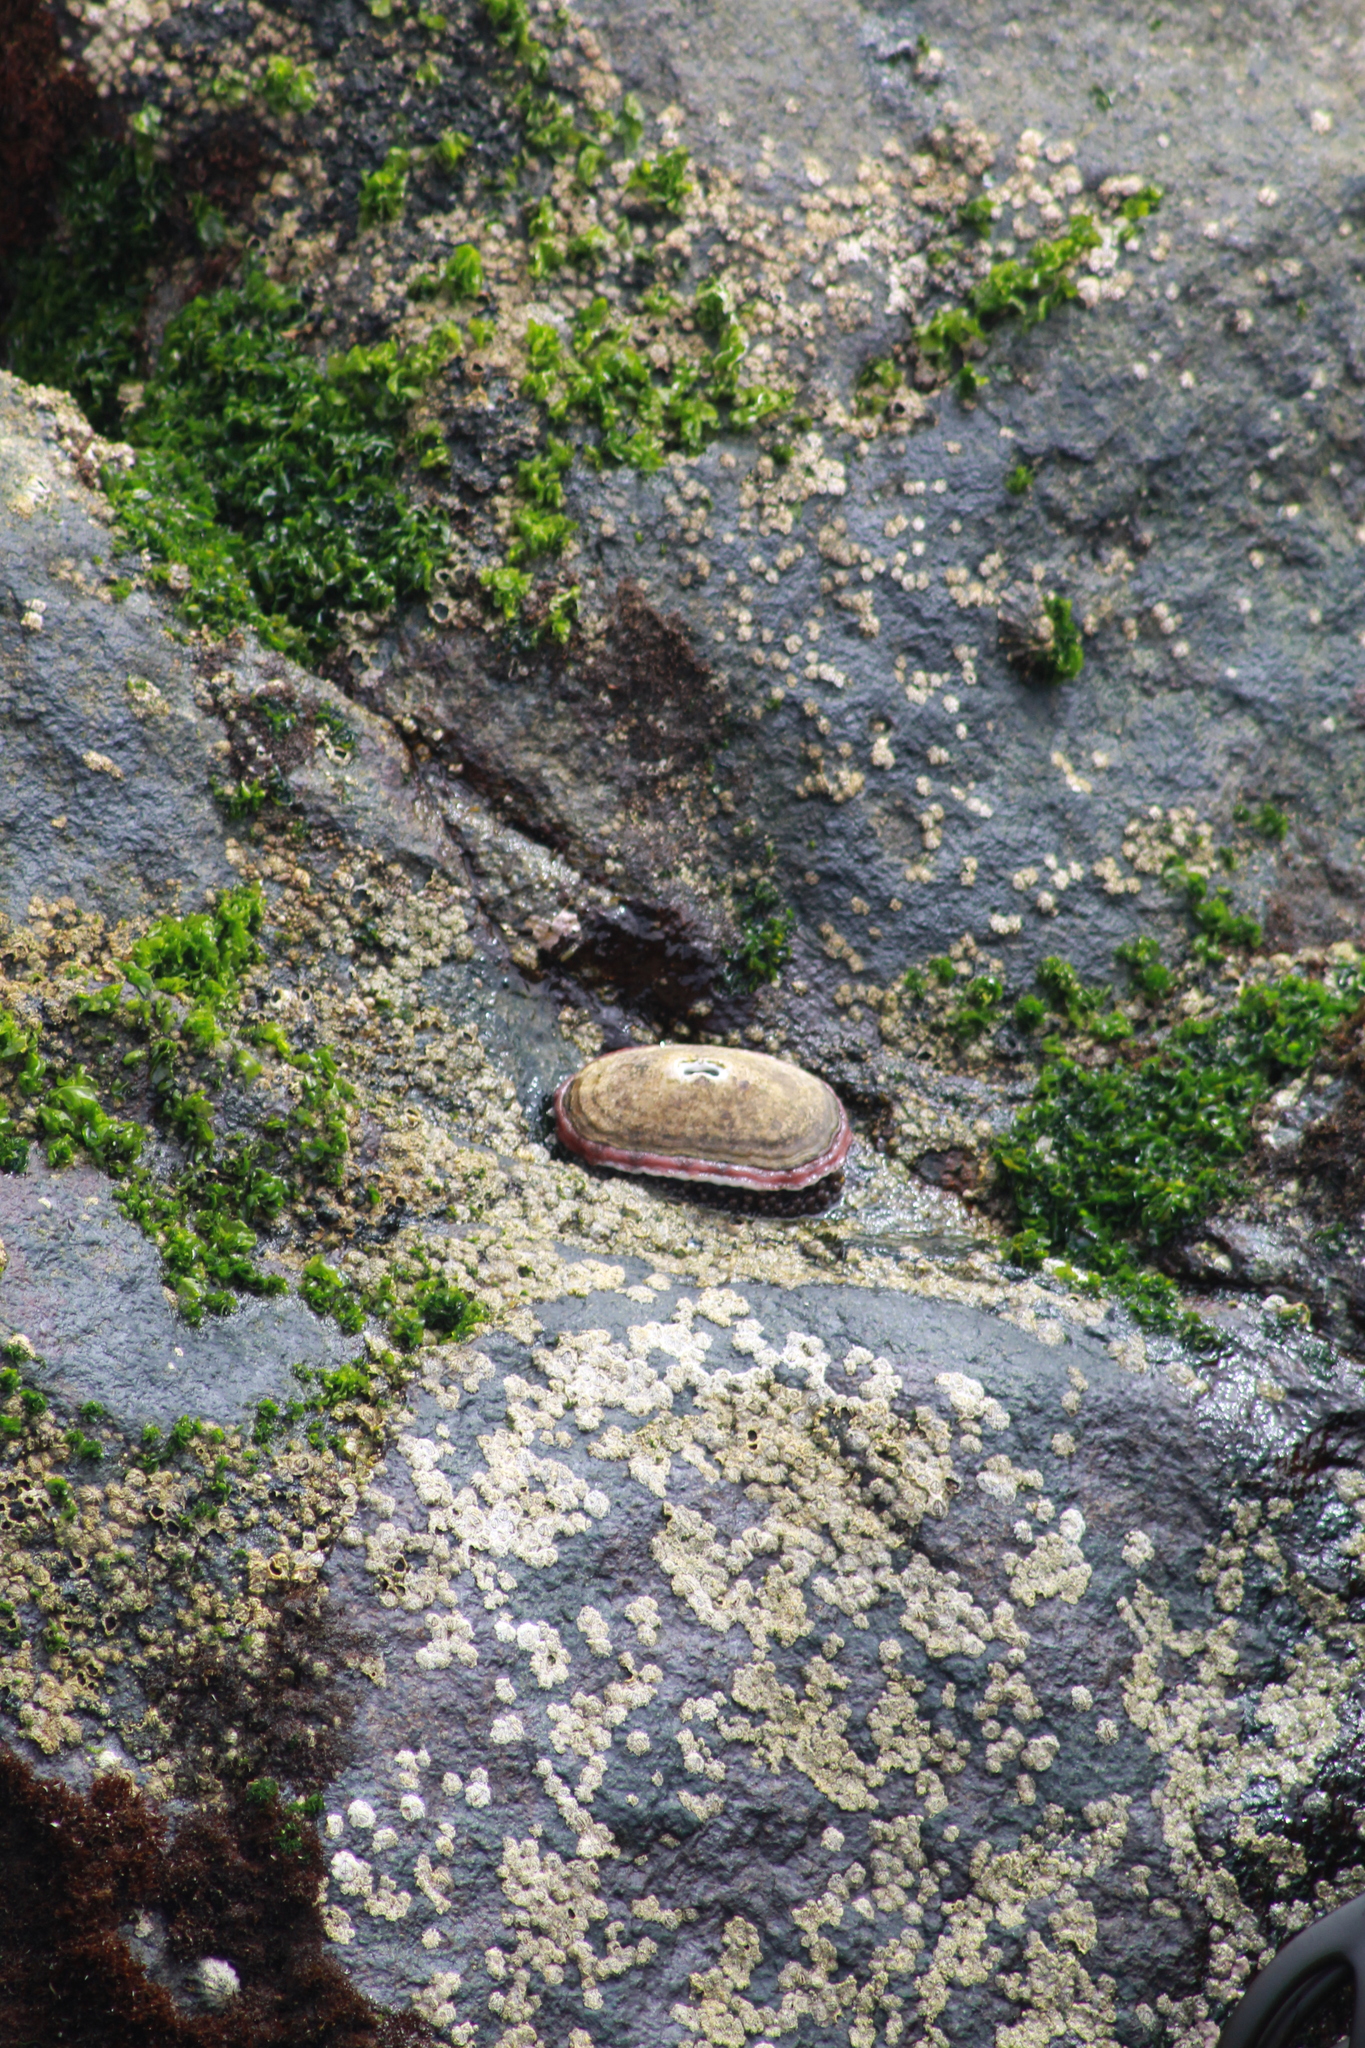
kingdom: Animalia
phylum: Mollusca
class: Gastropoda
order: Lepetellida
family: Fissurellidae
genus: Fissurella
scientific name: Fissurella crassa
